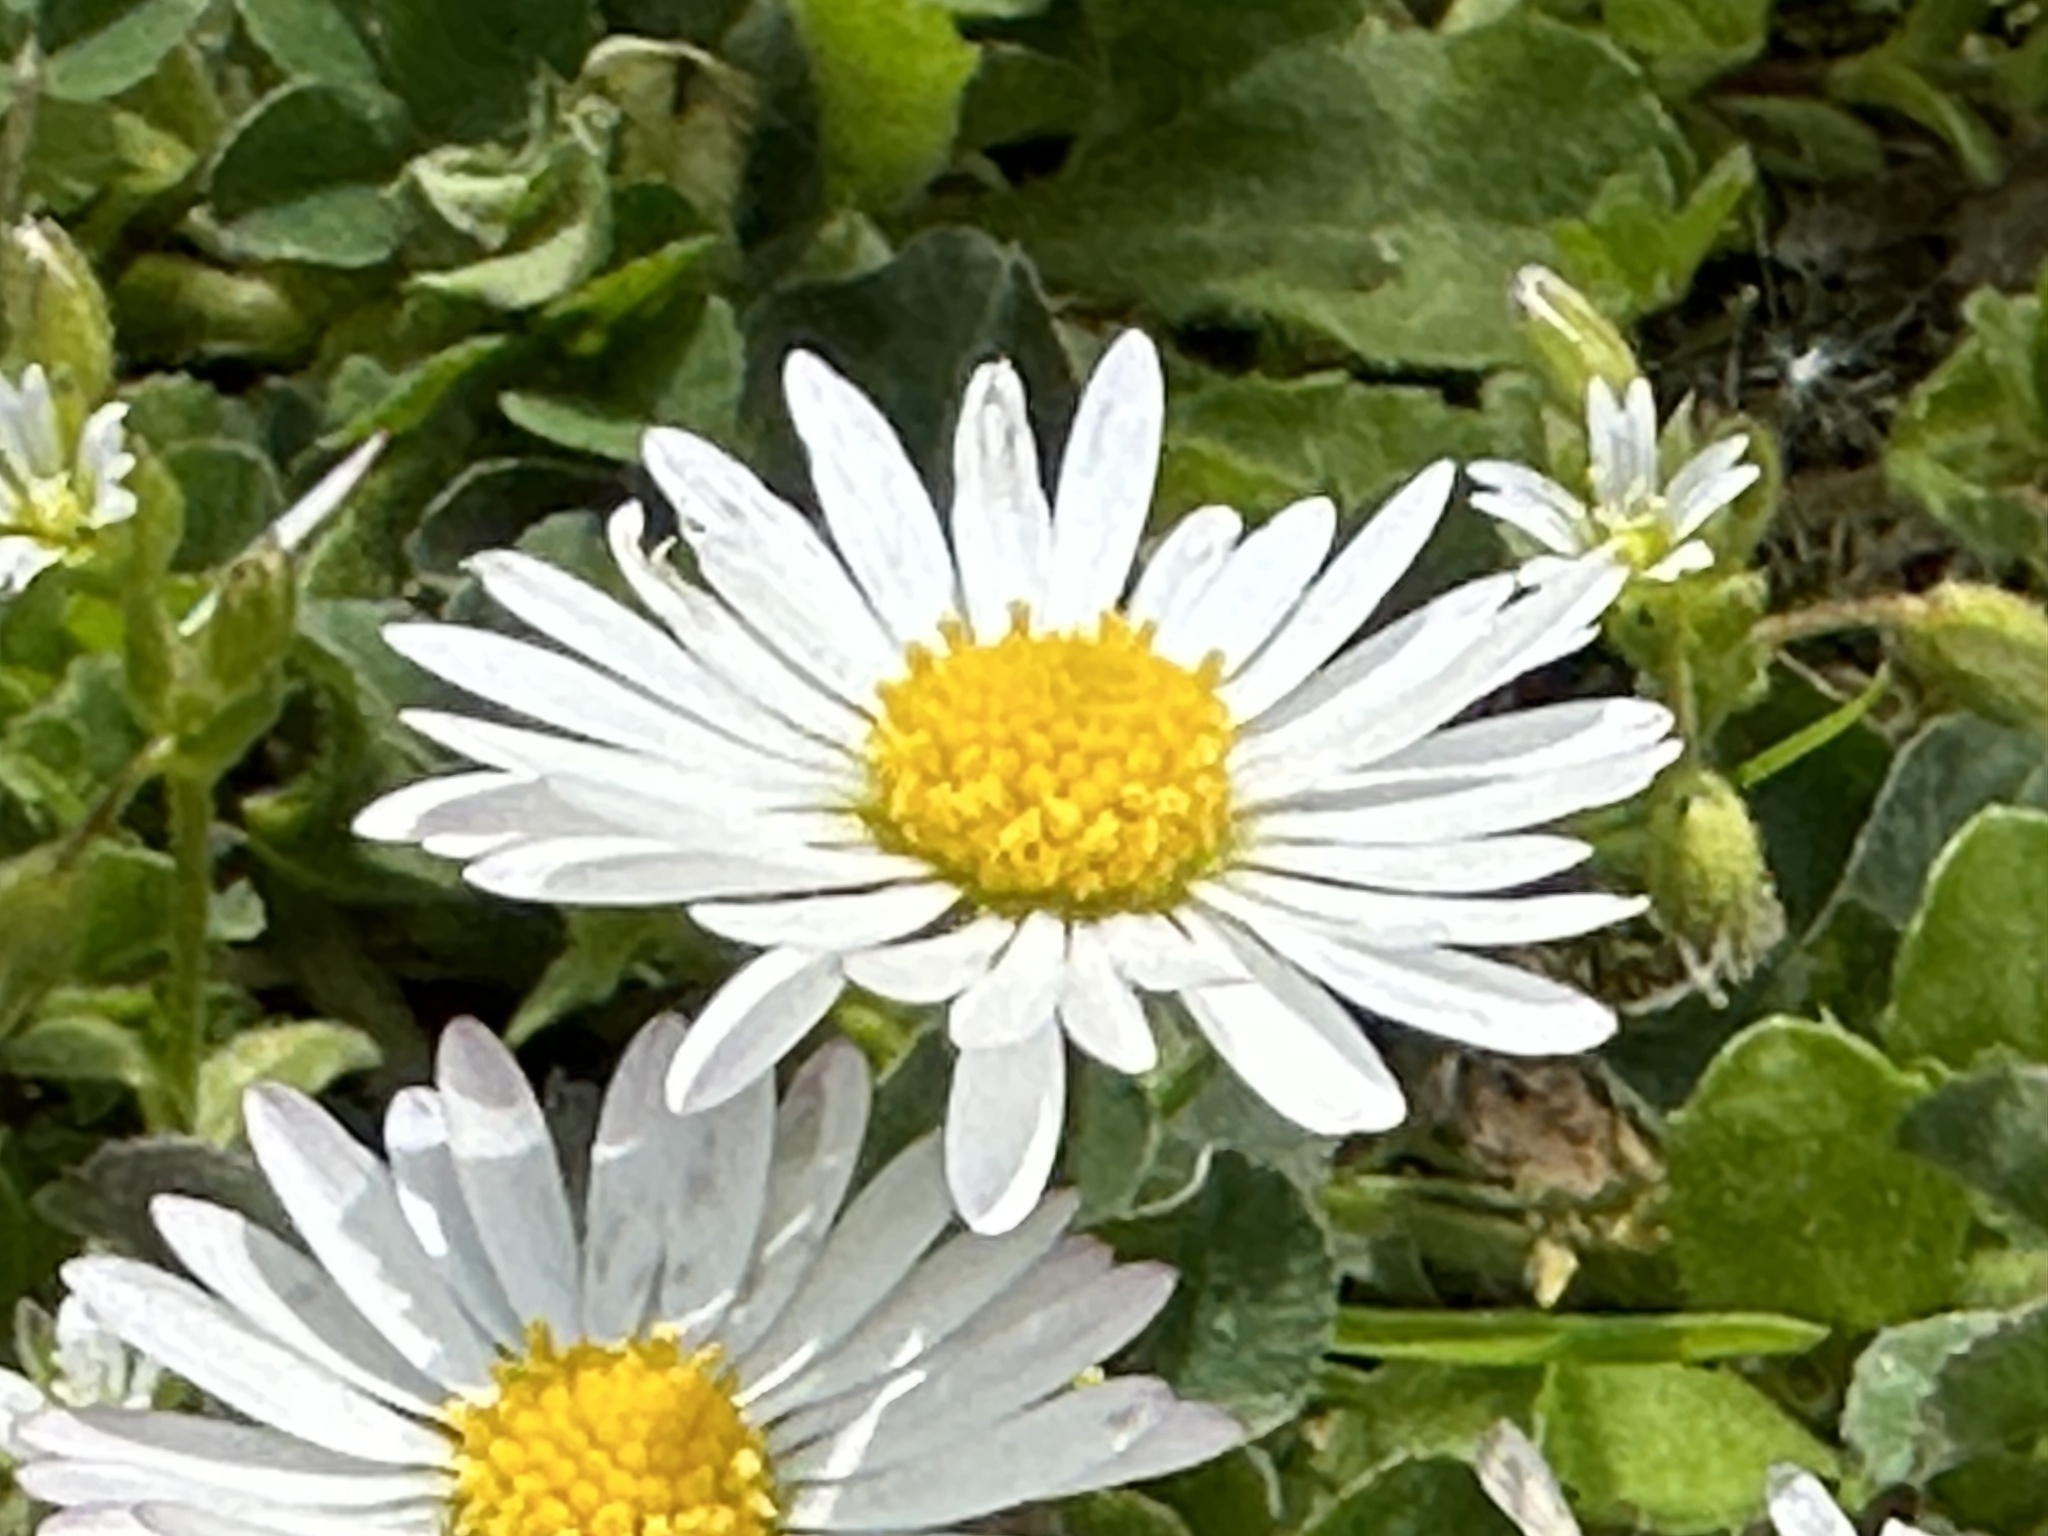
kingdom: Plantae
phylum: Tracheophyta
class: Magnoliopsida
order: Asterales
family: Asteraceae
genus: Bellis
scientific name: Bellis perennis
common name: Lawndaisy
